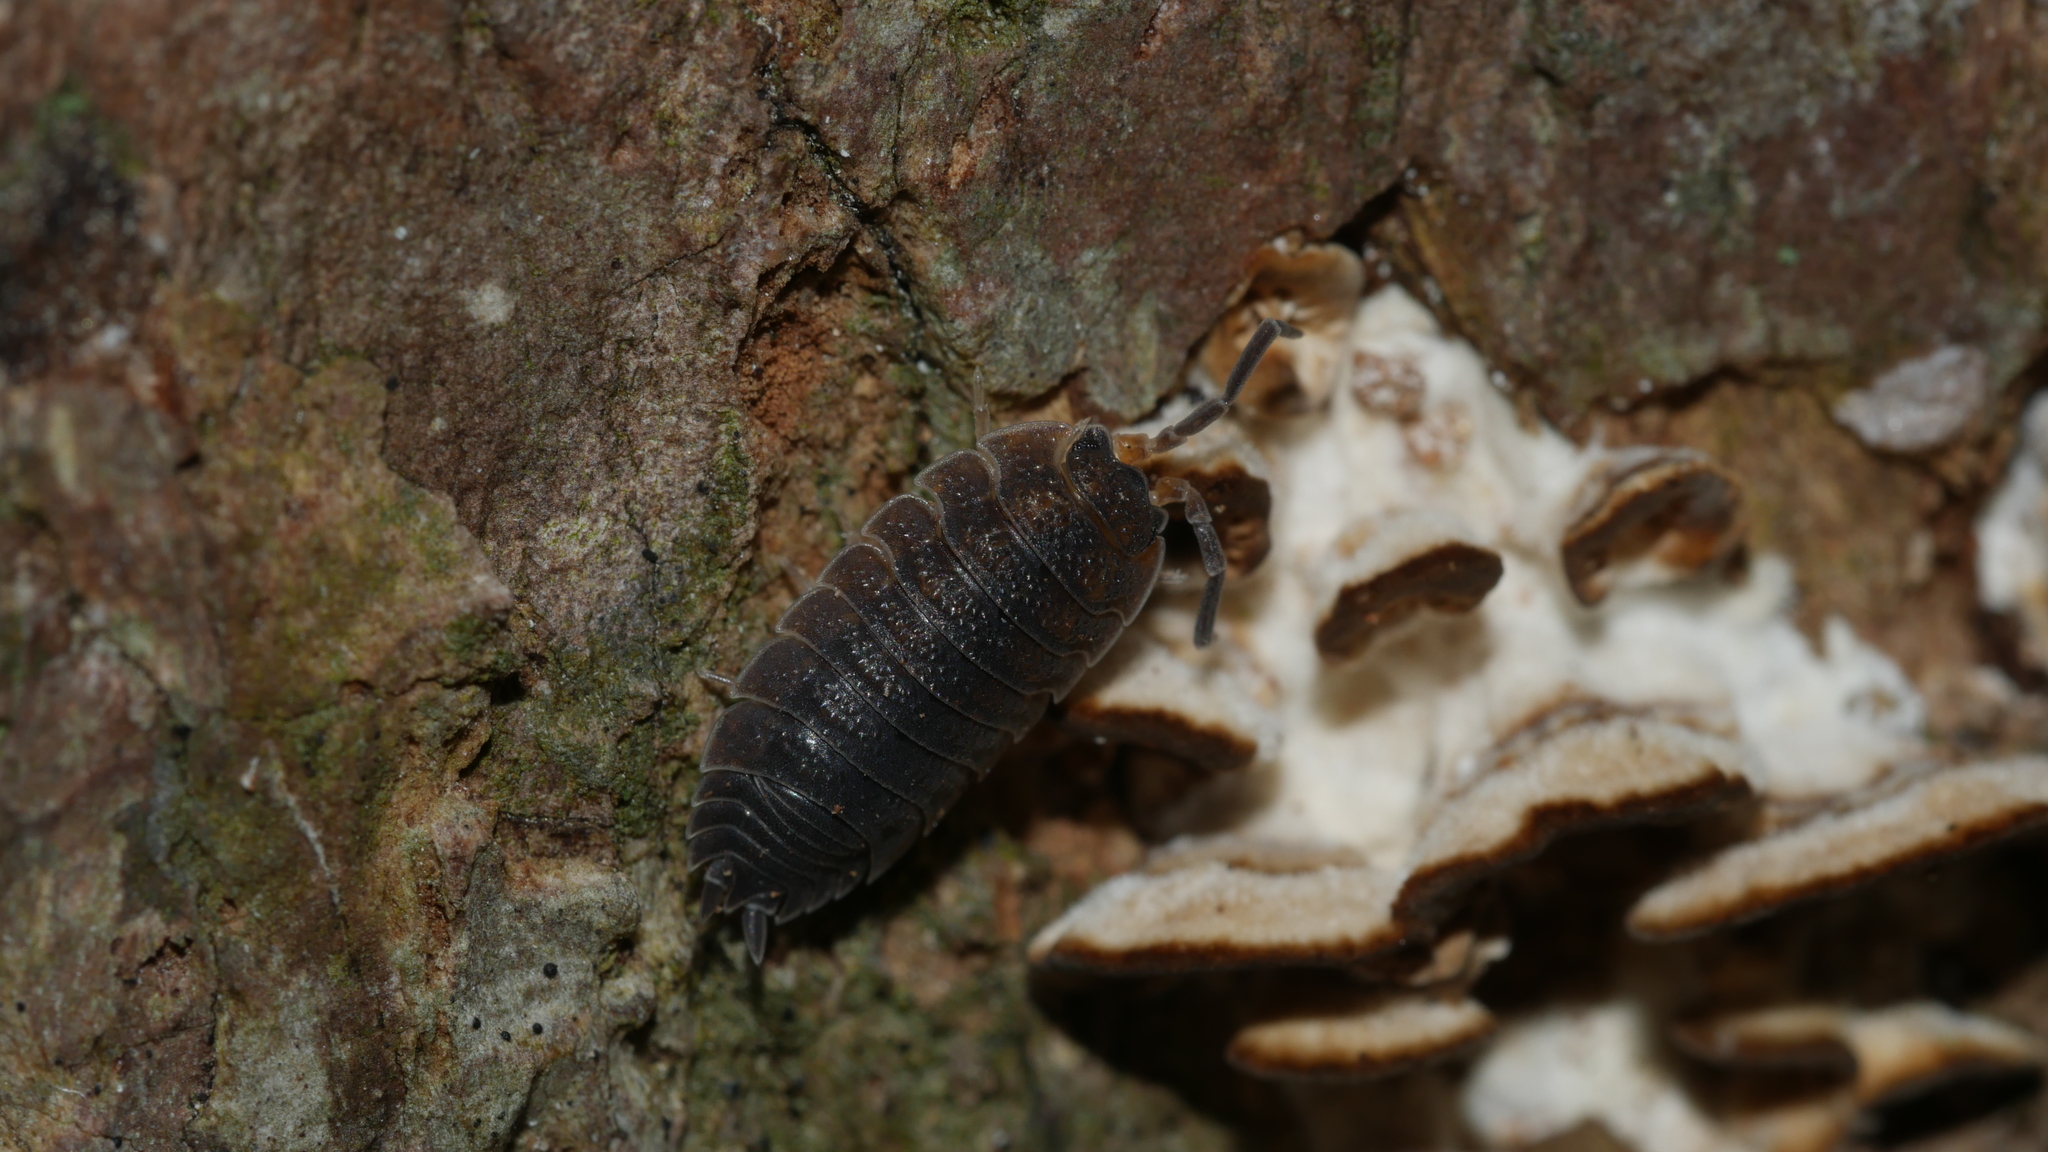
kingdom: Animalia
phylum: Arthropoda
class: Malacostraca
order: Isopoda
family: Porcellionidae
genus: Porcellio
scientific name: Porcellio scaber
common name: Common rough woodlouse
